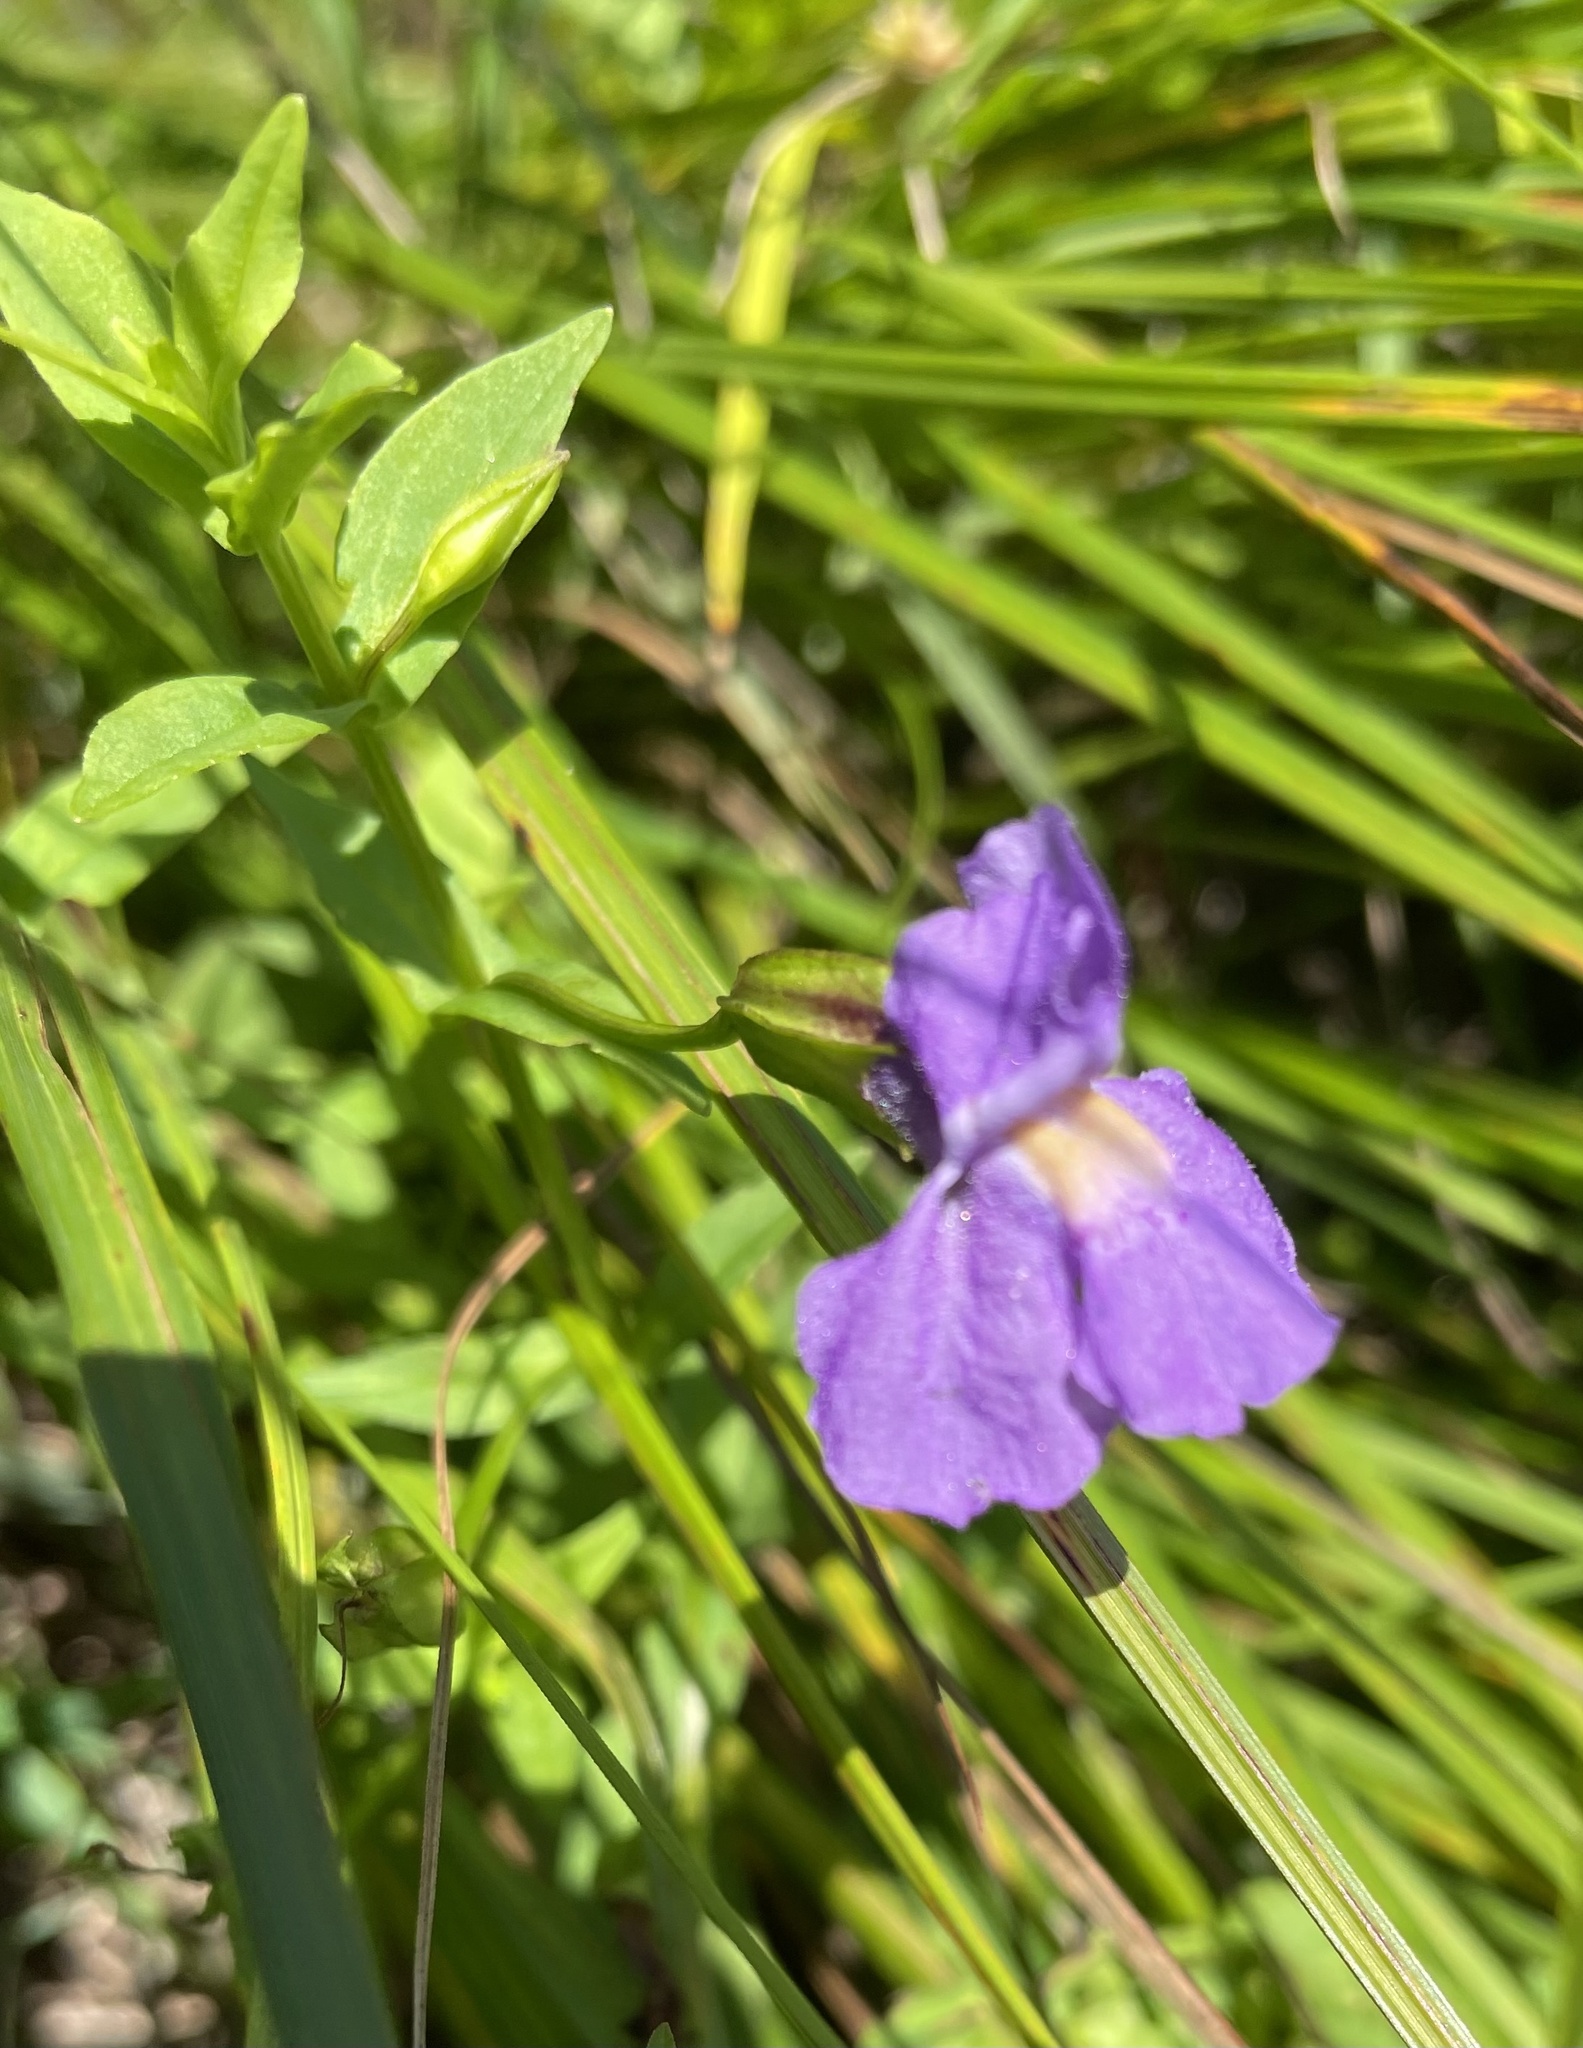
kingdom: Plantae
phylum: Tracheophyta
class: Magnoliopsida
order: Lamiales
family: Phrymaceae
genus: Mimulus
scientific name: Mimulus ringens
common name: Allegheny monkeyflower
